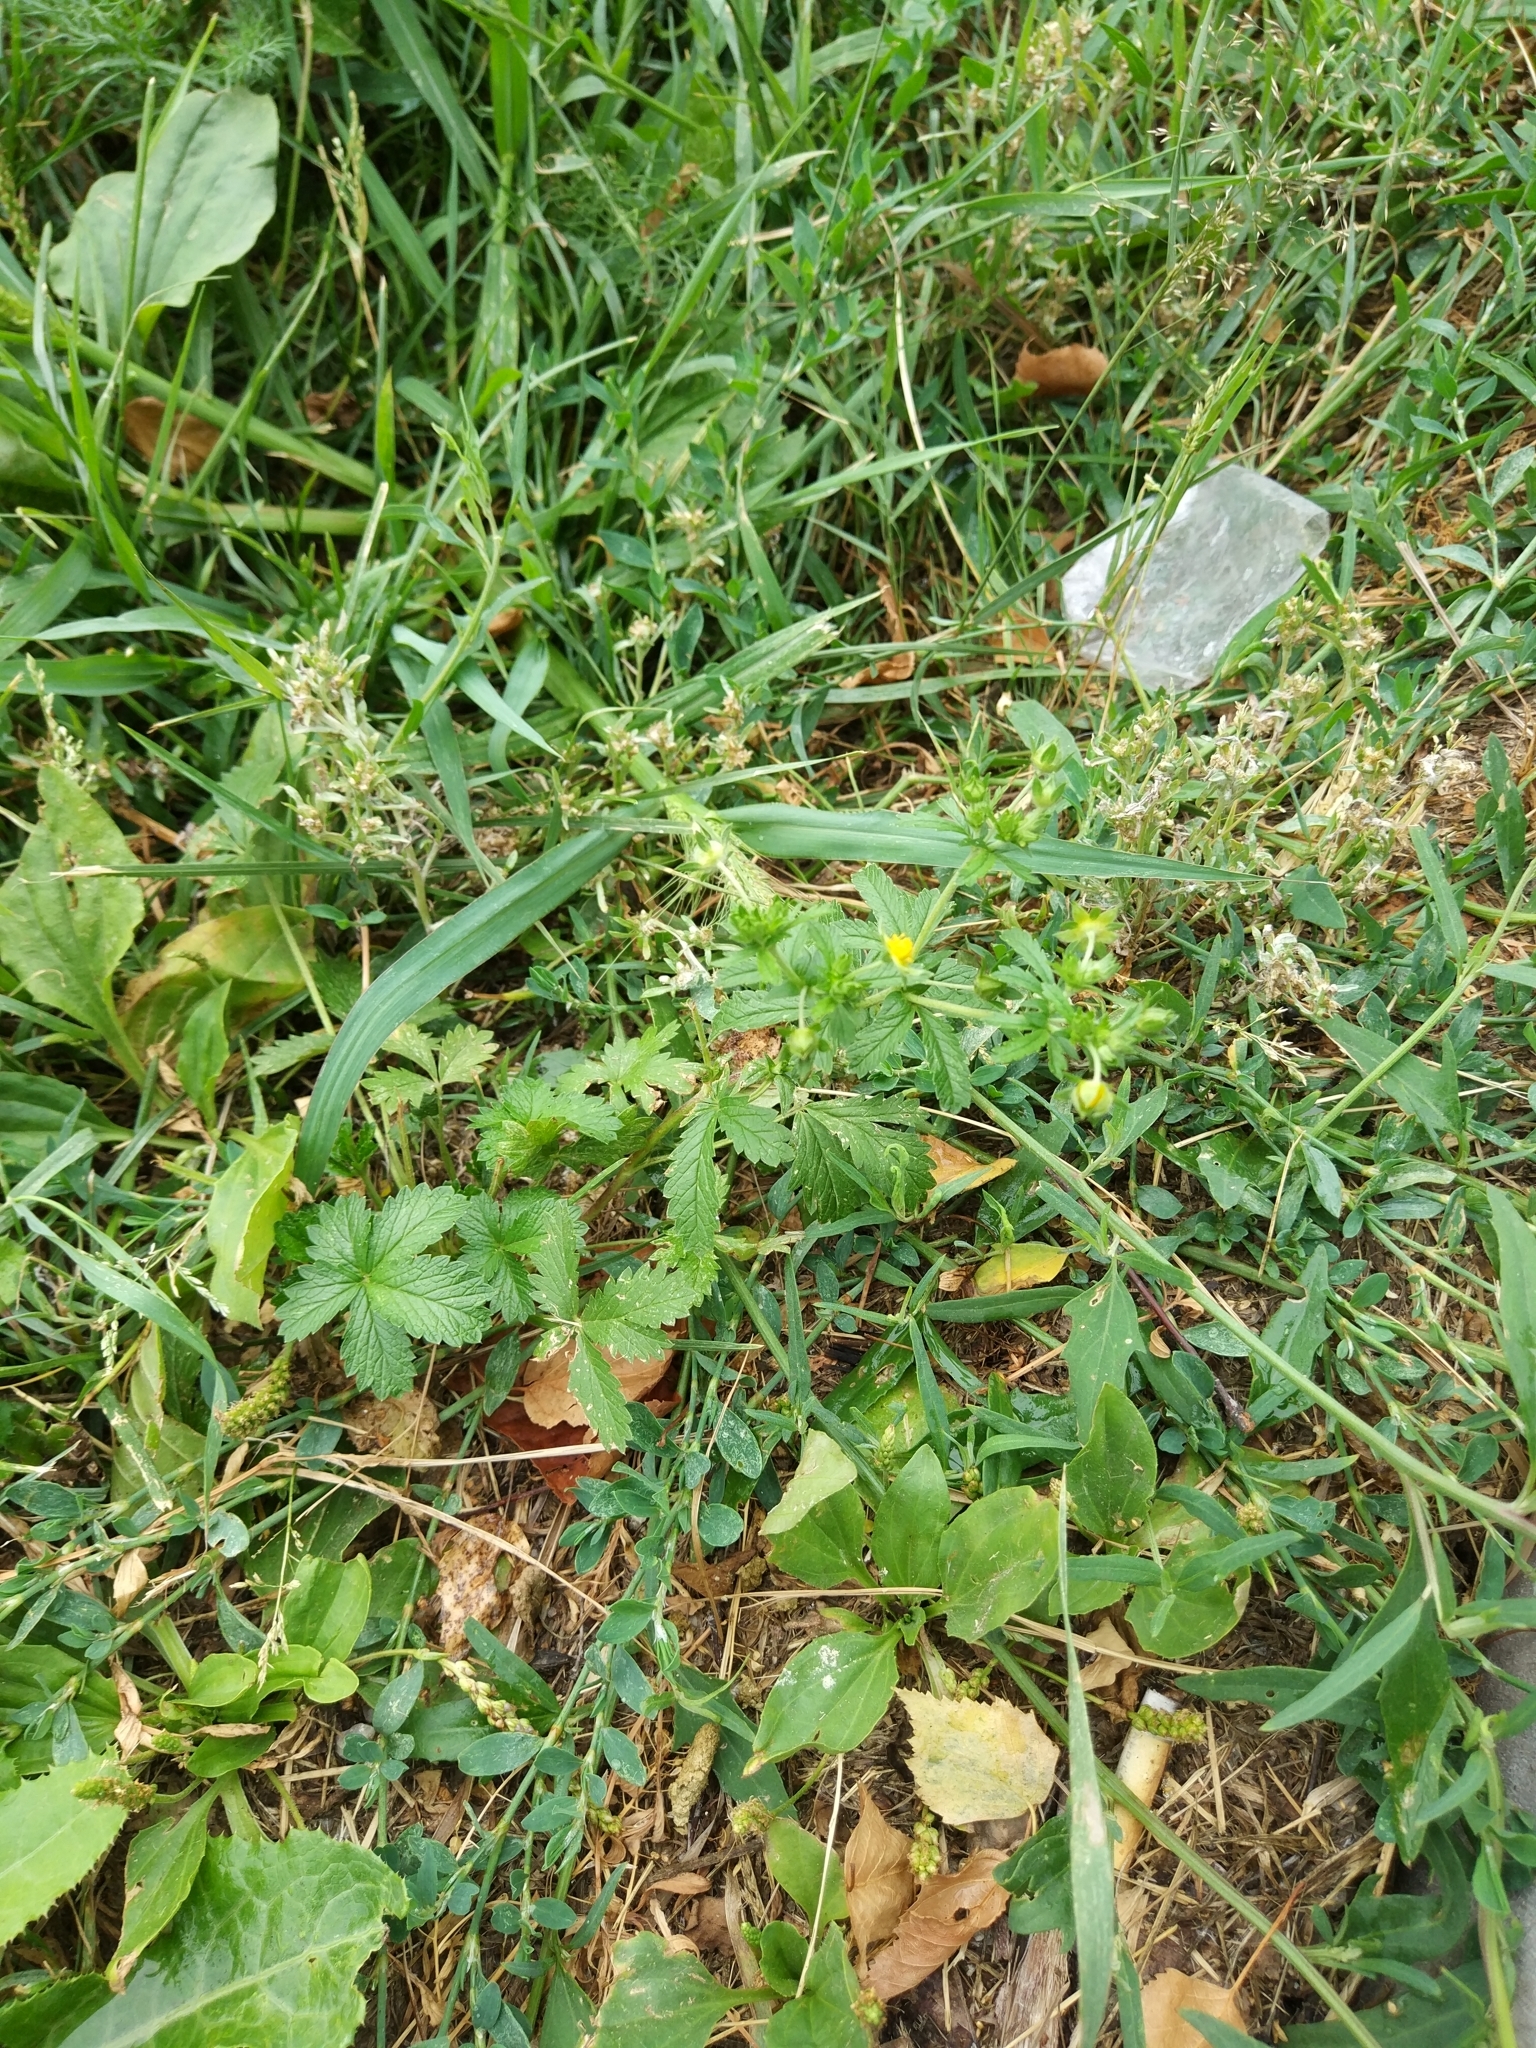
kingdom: Plantae
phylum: Tracheophyta
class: Magnoliopsida
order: Rosales
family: Rosaceae
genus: Potentilla
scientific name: Potentilla intermedia
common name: Downy cinquefoil
